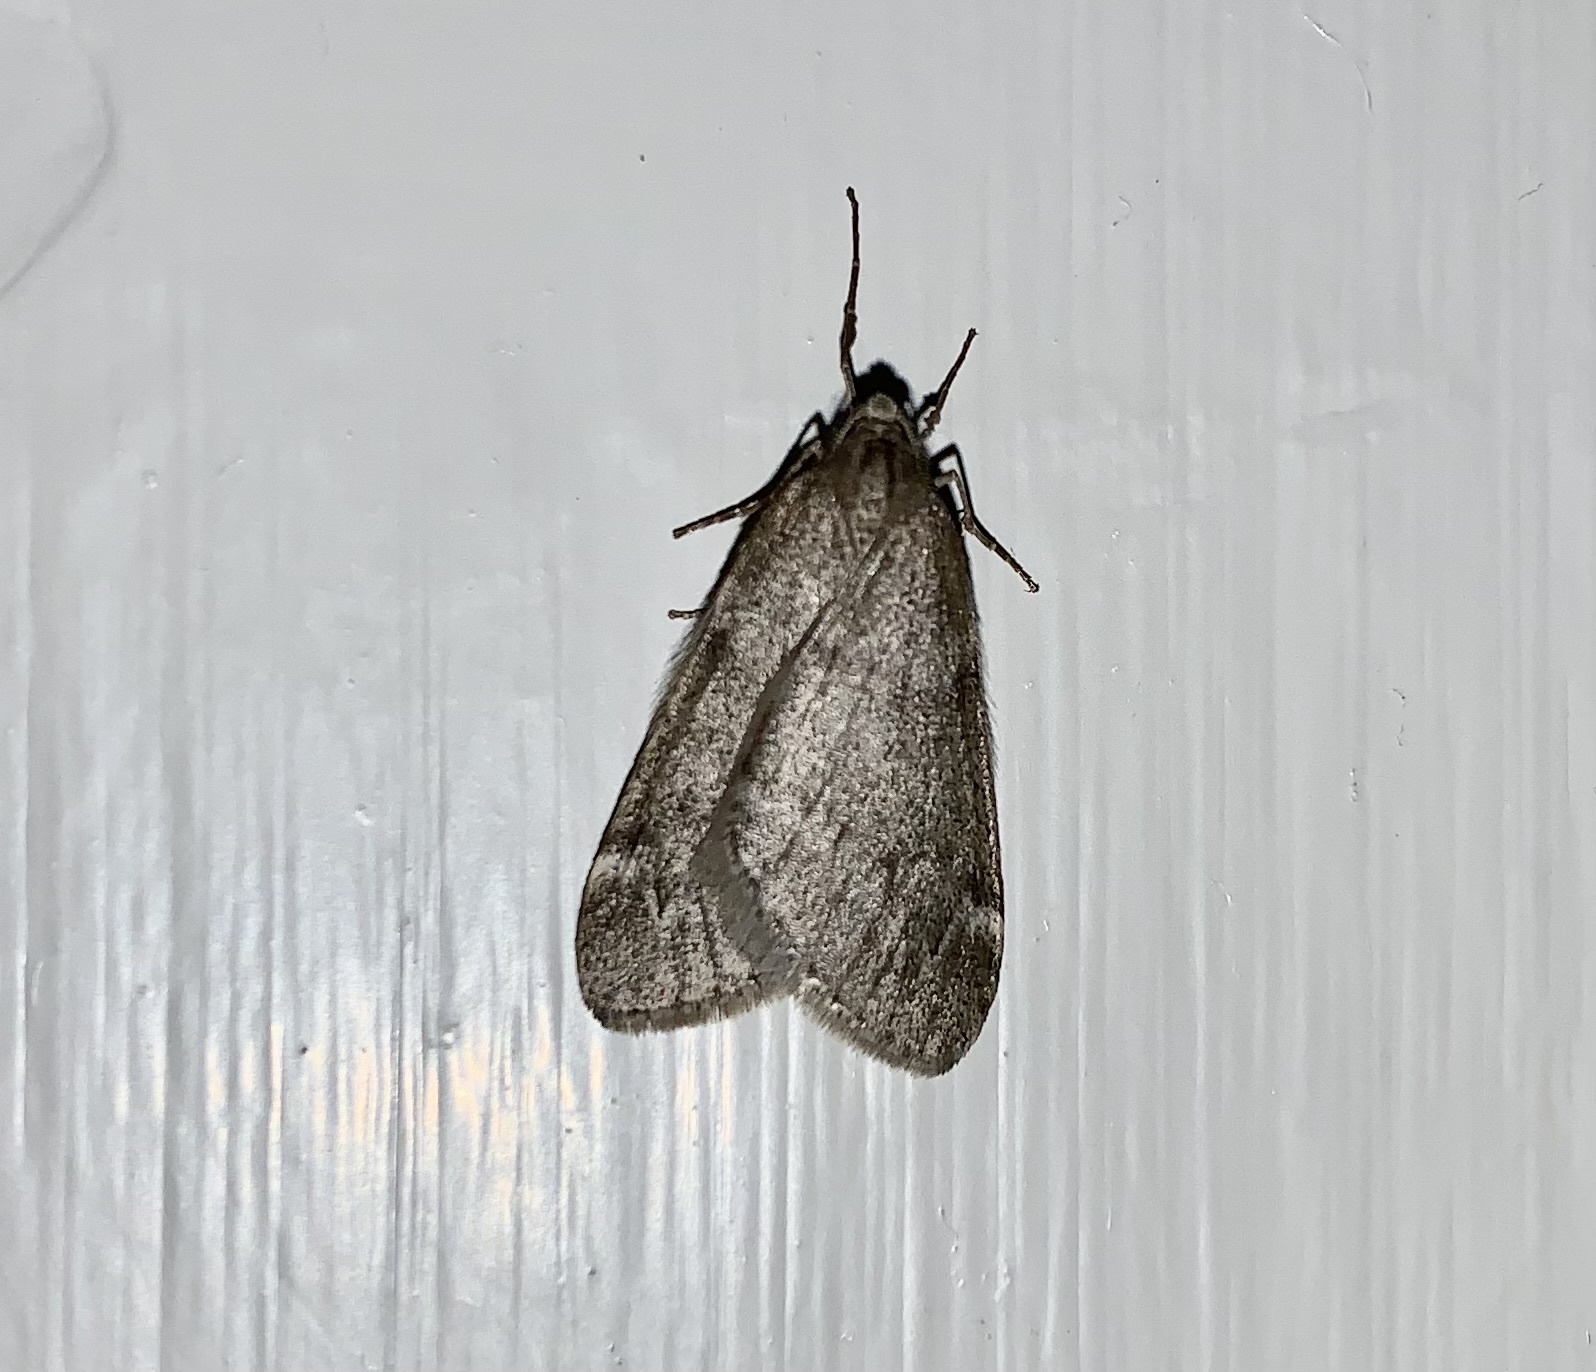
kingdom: Animalia
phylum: Arthropoda
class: Insecta
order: Lepidoptera
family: Geometridae
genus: Alsophila
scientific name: Alsophila pometaria
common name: Fall cankerworm
